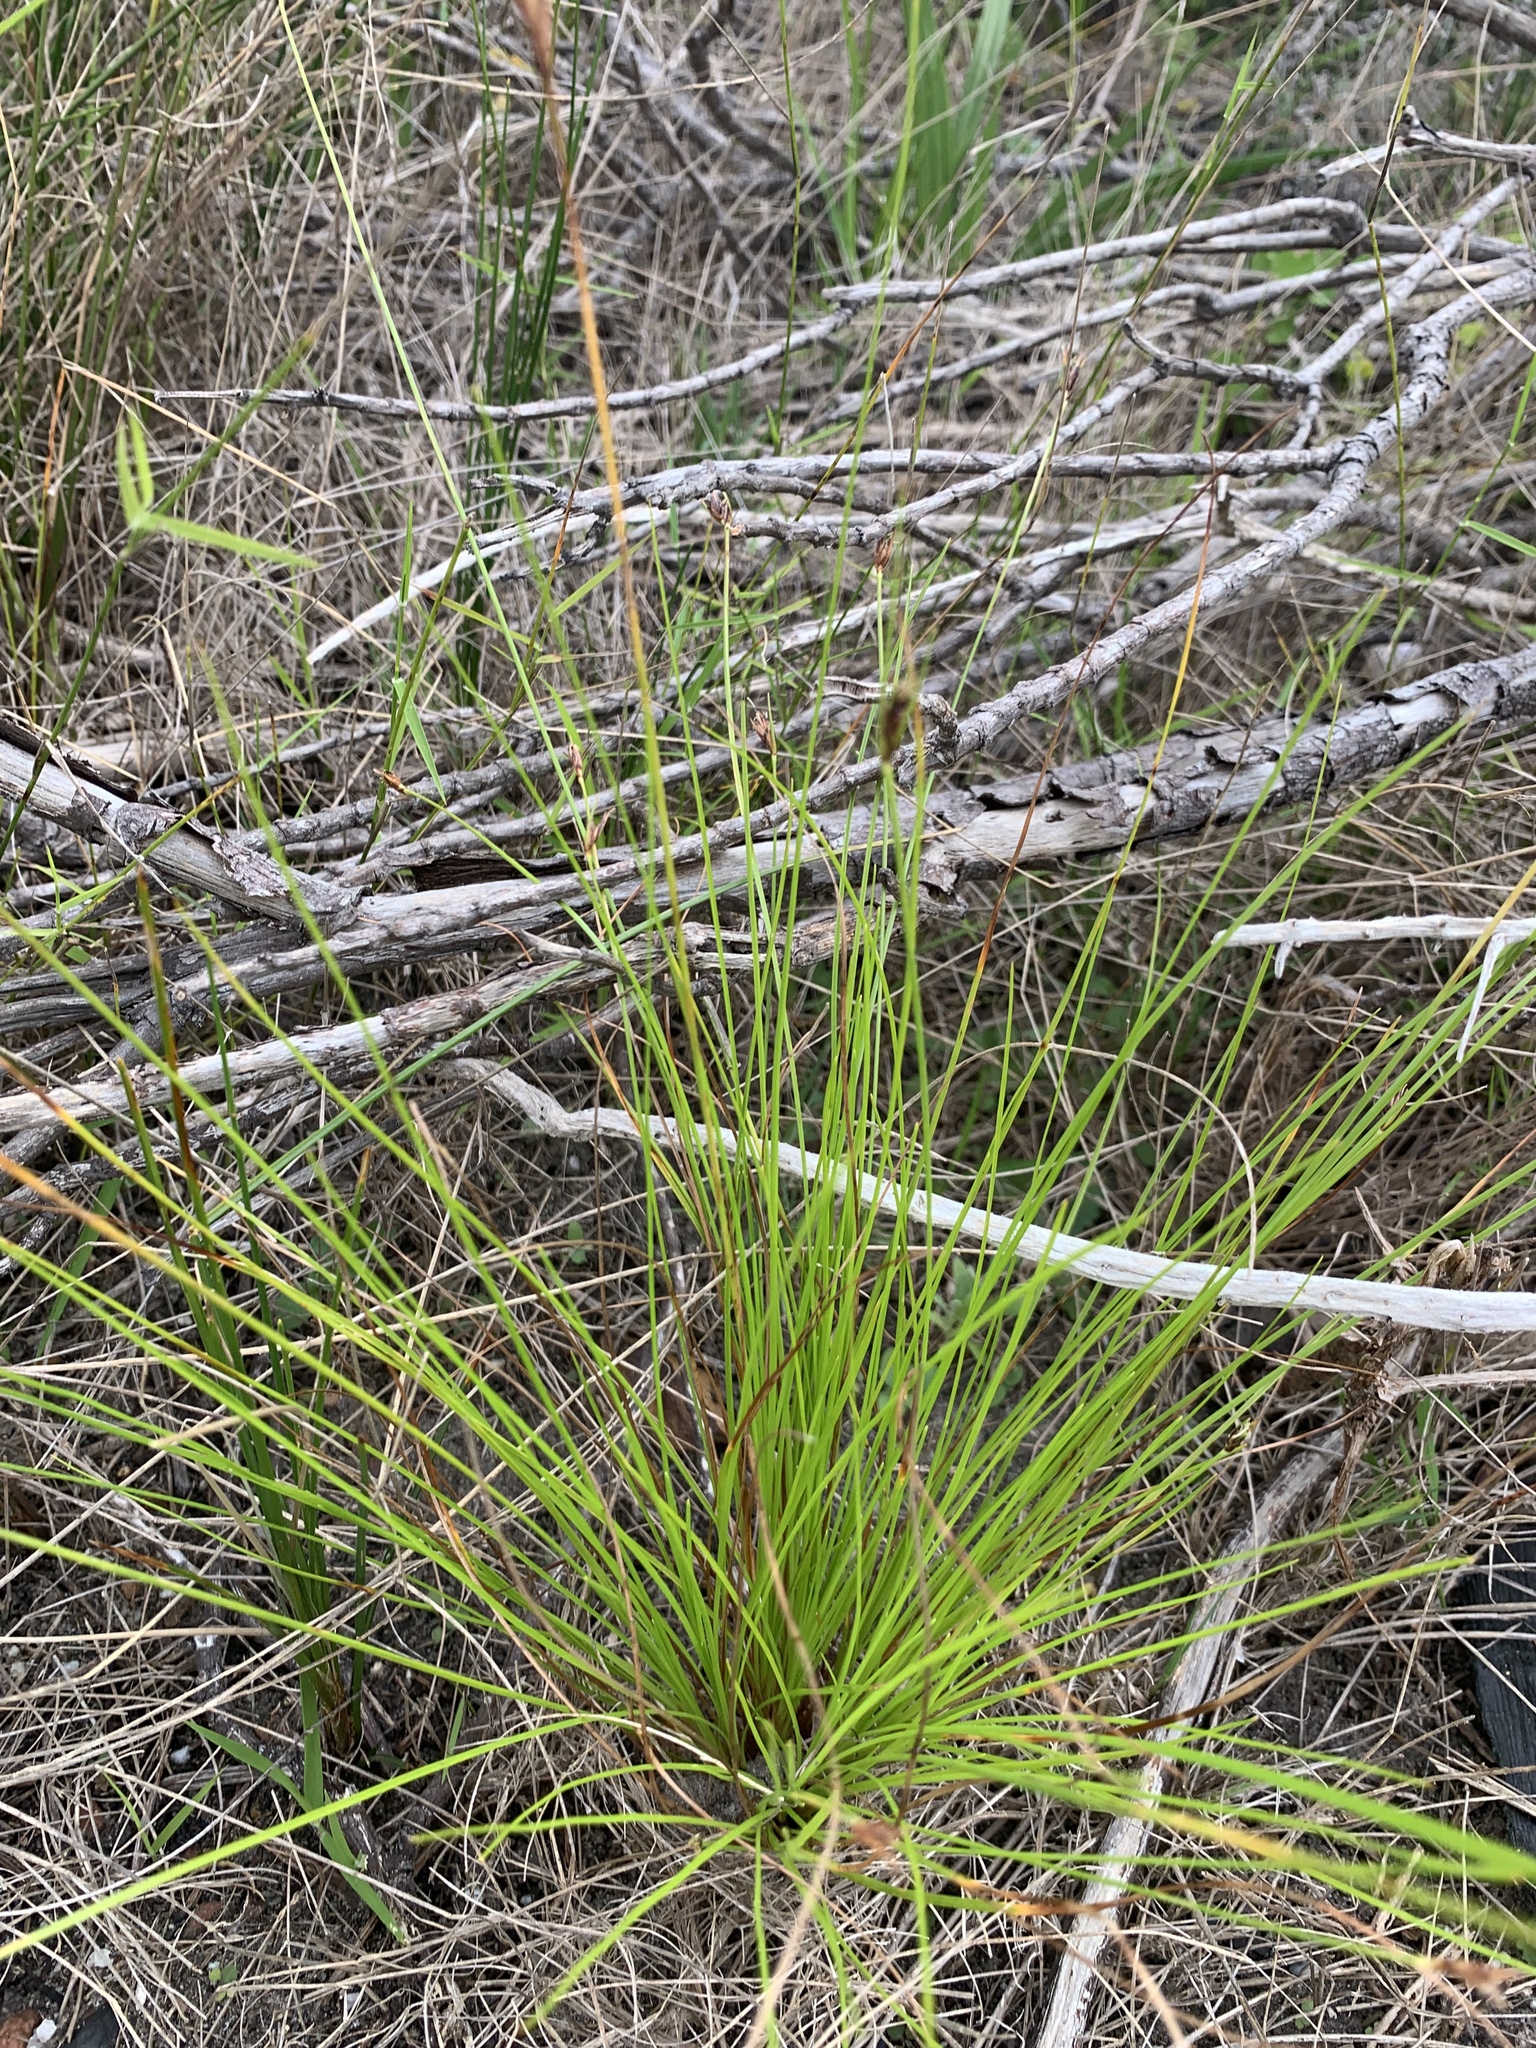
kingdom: Plantae
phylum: Tracheophyta
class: Liliopsida
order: Poales
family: Cyperaceae
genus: Ficinia
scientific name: Ficinia fastigiata
